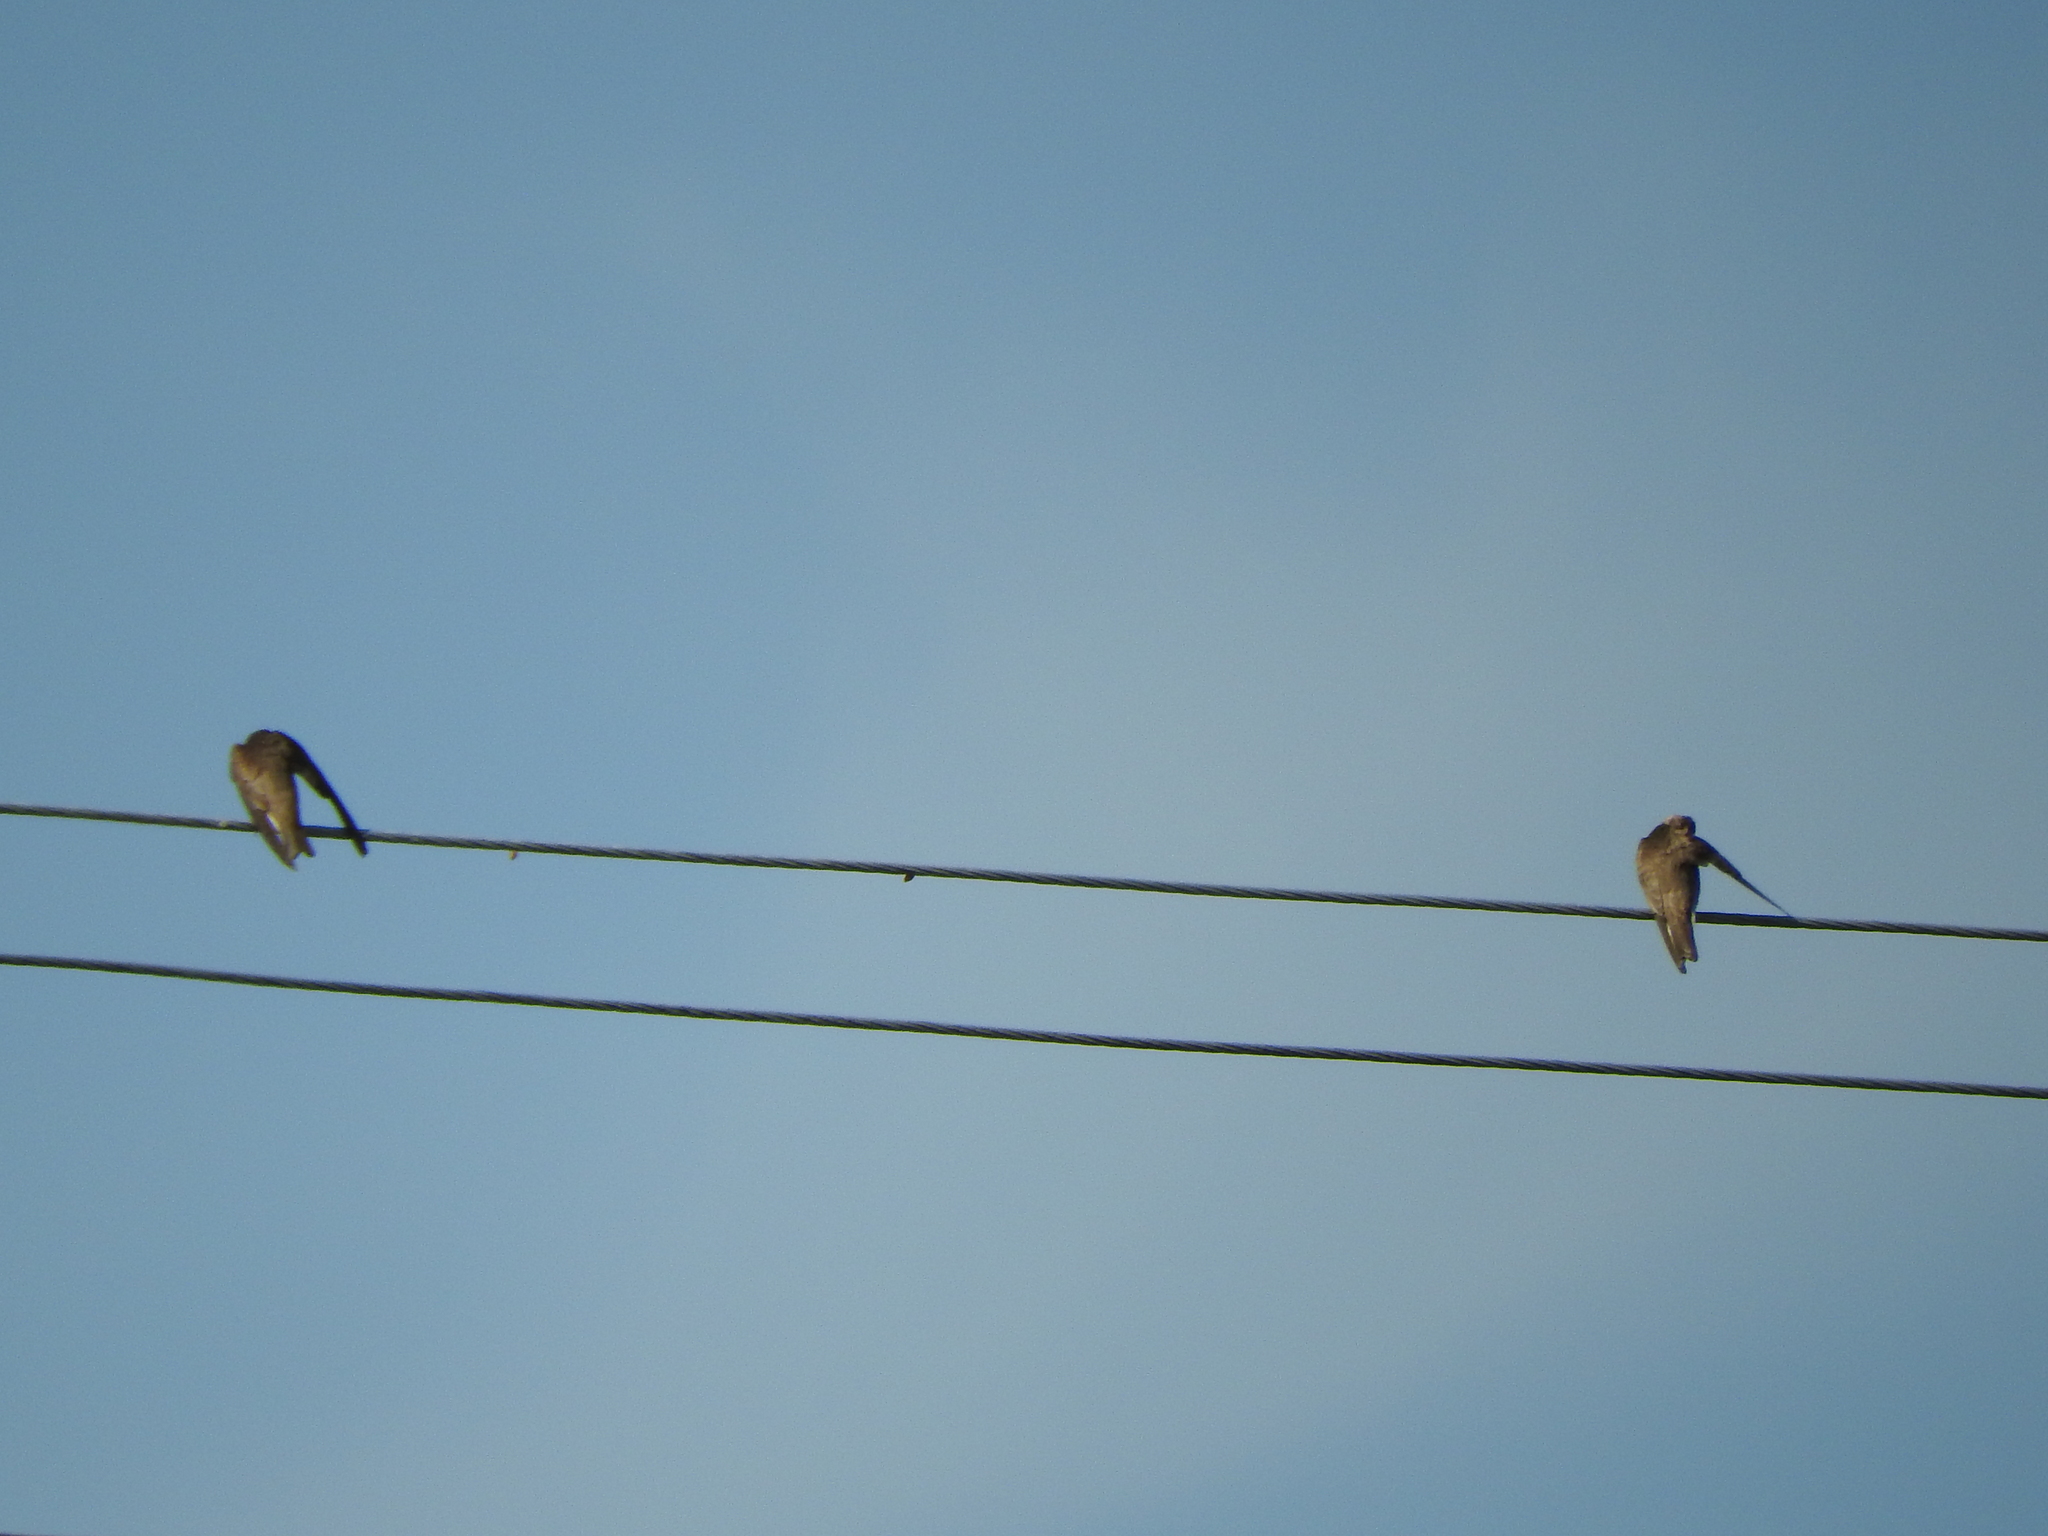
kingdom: Animalia
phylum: Chordata
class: Aves
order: Passeriformes
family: Hirundinidae
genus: Stelgidopteryx
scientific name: Stelgidopteryx serripennis
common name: Northern rough-winged swallow
